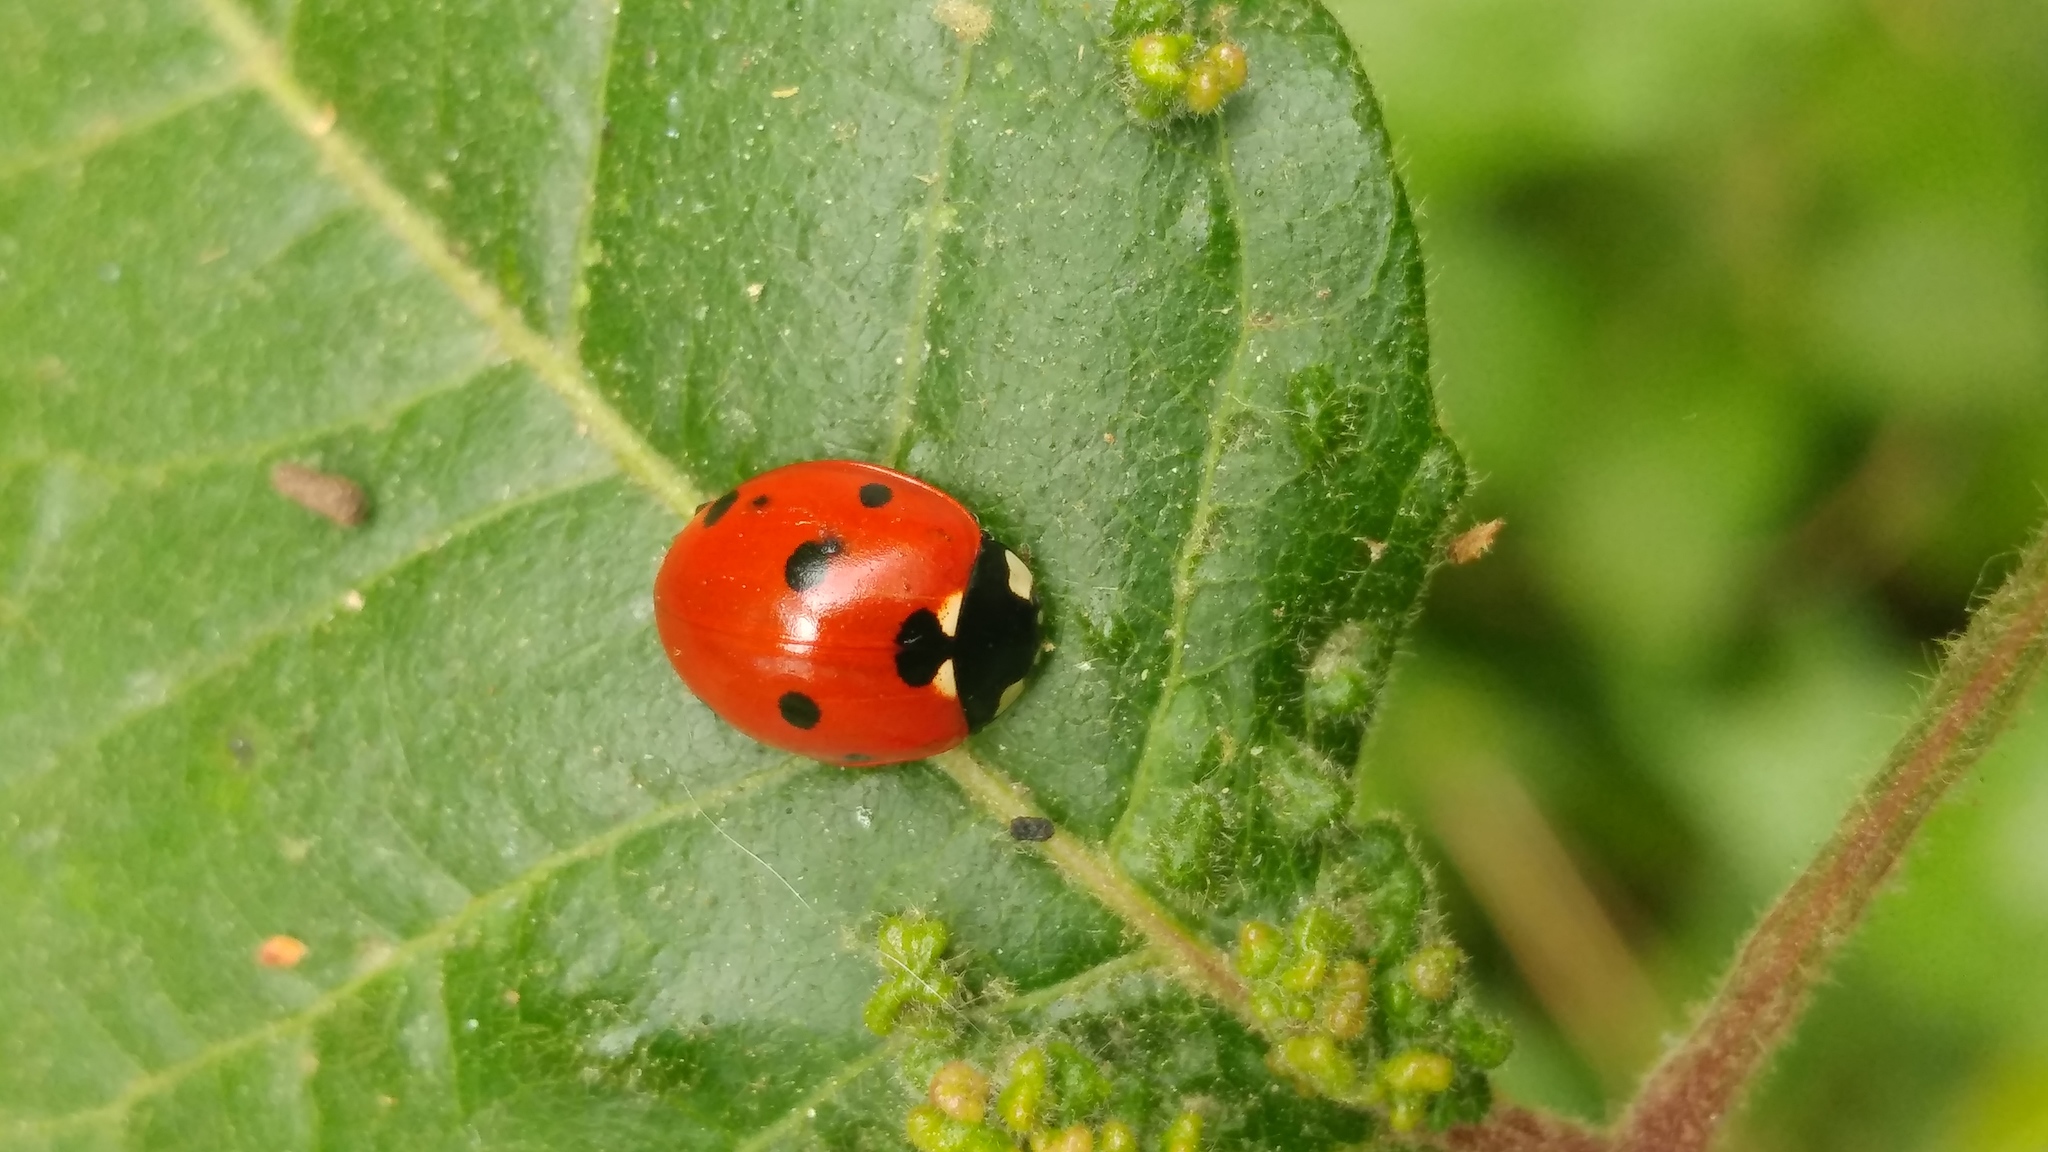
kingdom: Animalia
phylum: Arthropoda
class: Insecta
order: Coleoptera
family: Coccinellidae
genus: Coccinella
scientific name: Coccinella septempunctata
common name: Sevenspotted lady beetle
